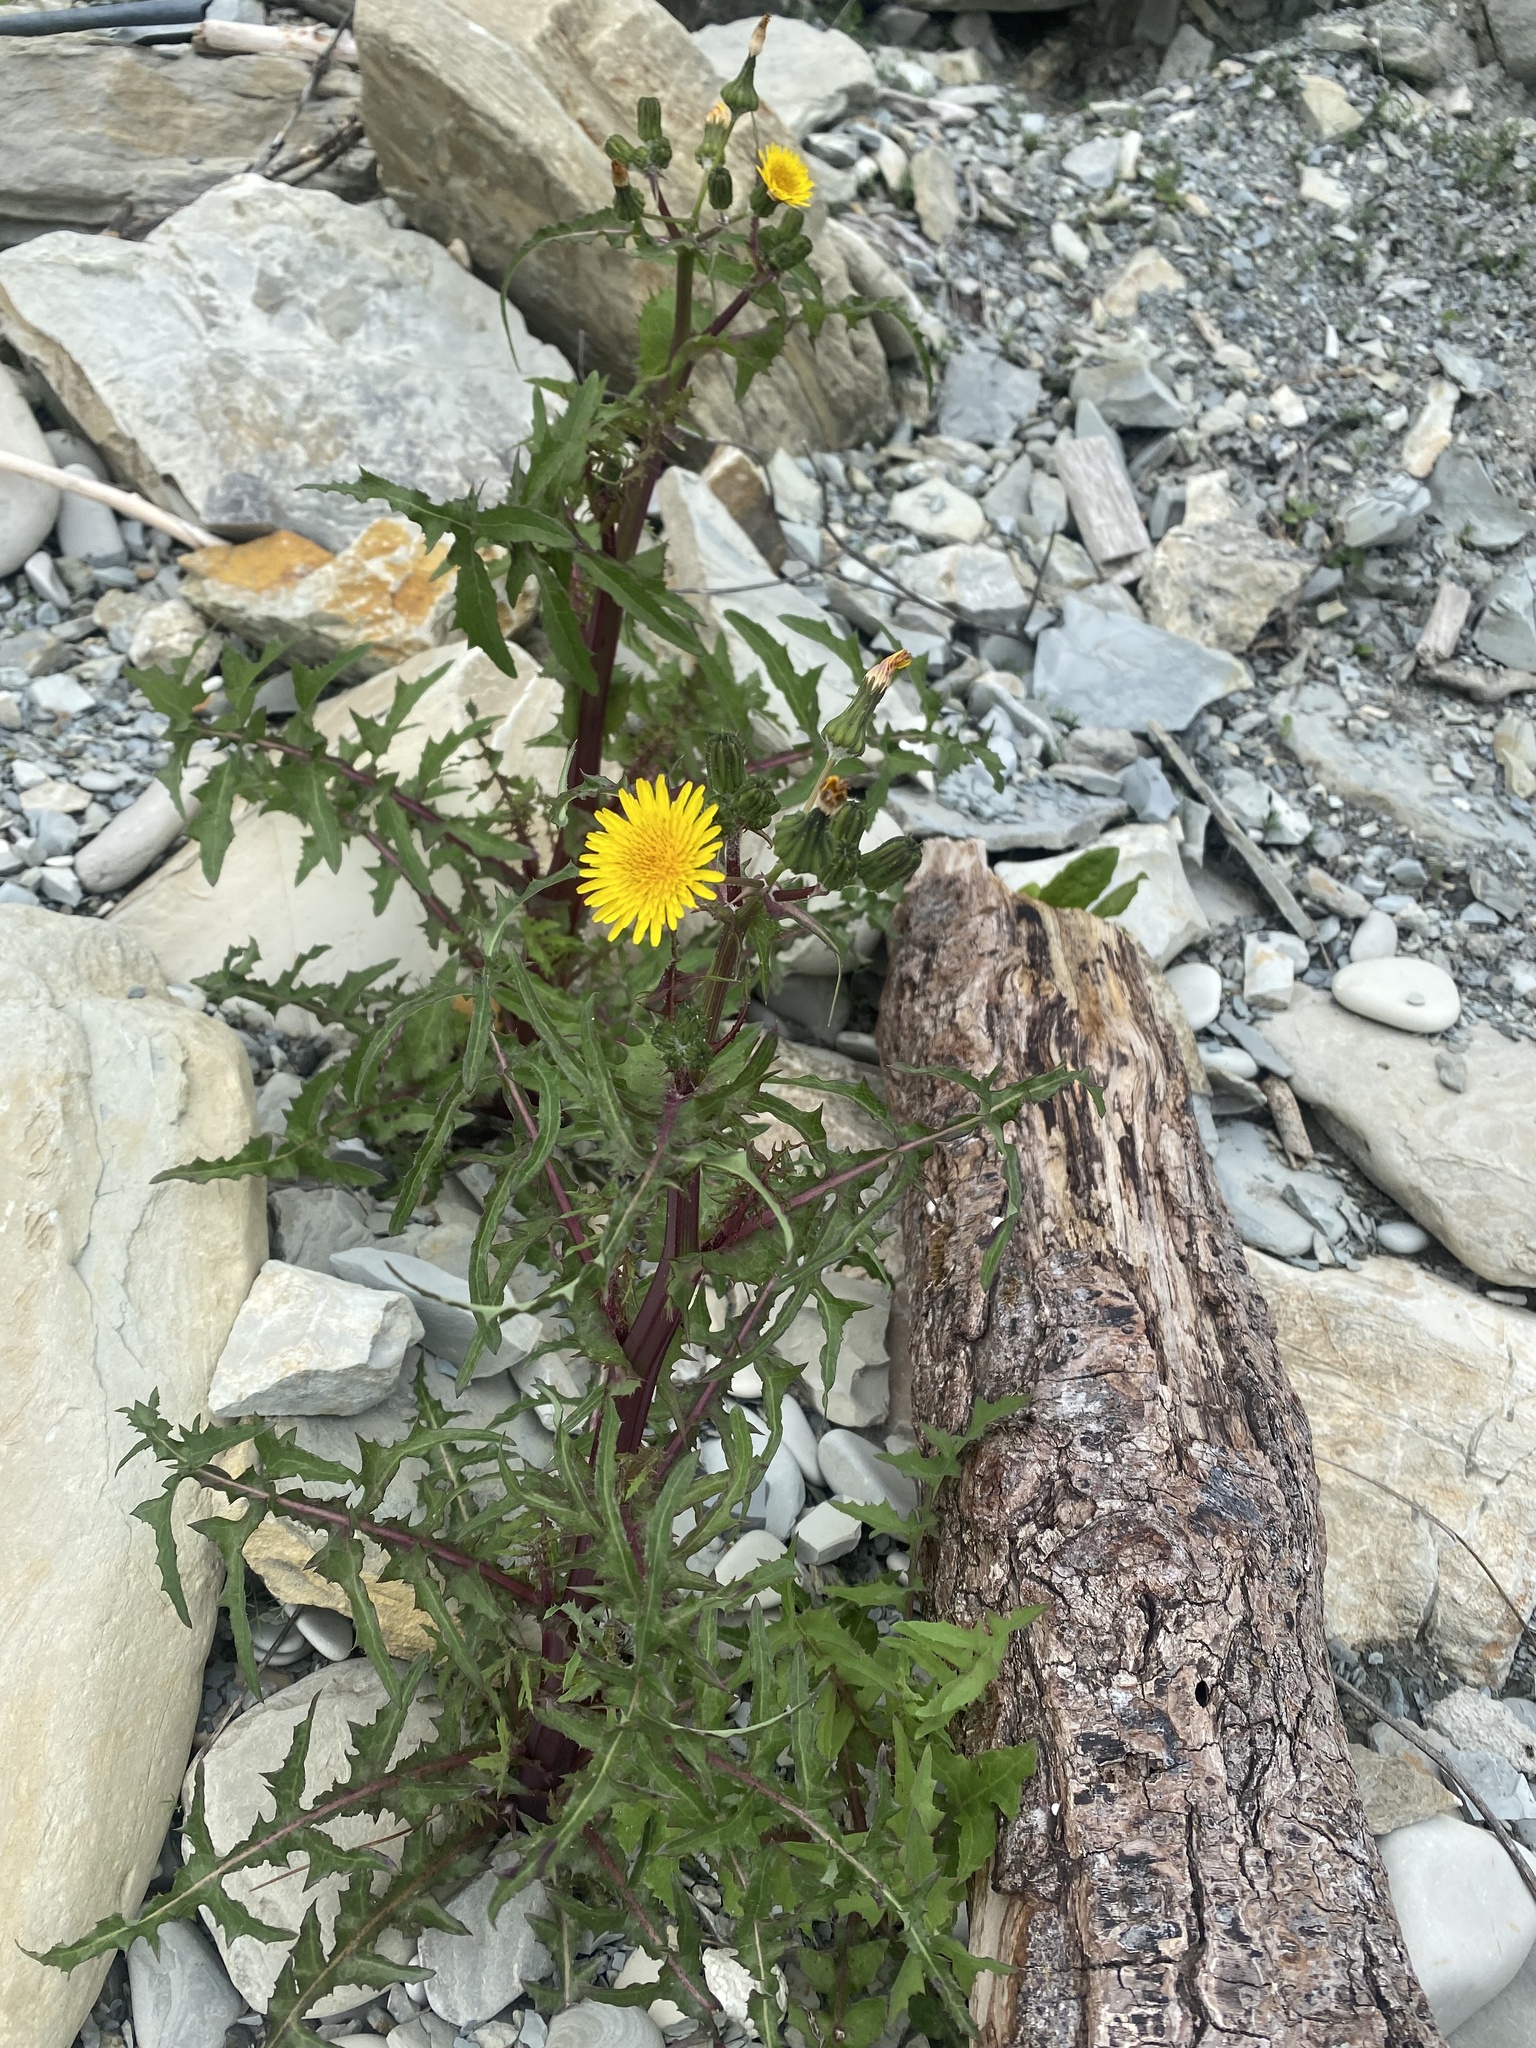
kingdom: Plantae
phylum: Tracheophyta
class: Magnoliopsida
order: Asterales
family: Asteraceae
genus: Sonchus
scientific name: Sonchus oleraceus
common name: Common sowthistle
